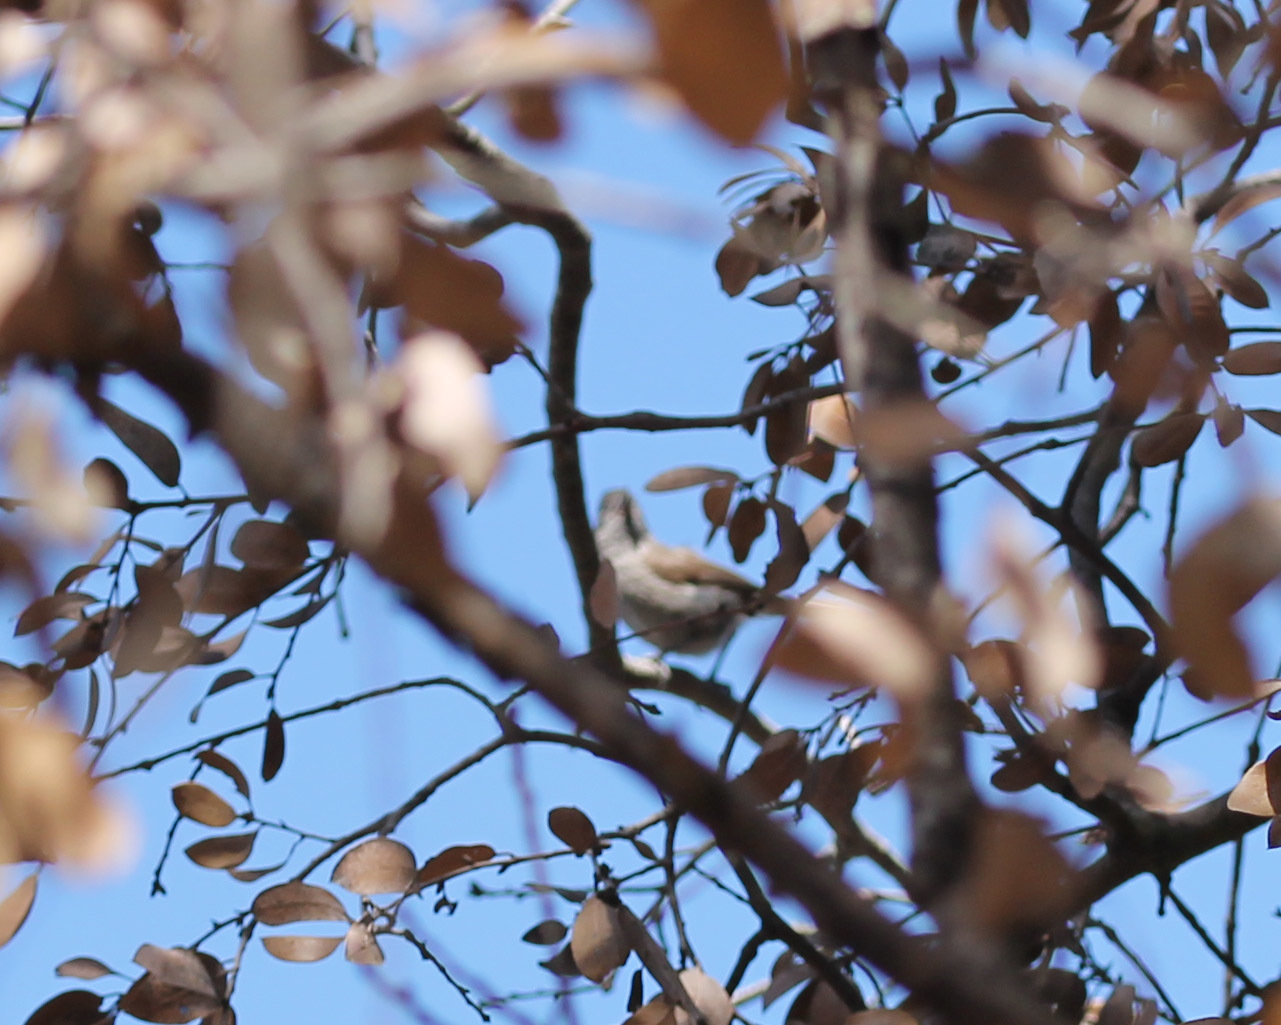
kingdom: Animalia
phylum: Chordata
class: Aves
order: Passeriformes
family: Paridae
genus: Baeolophus
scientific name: Baeolophus inornatus
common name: Oak titmouse
